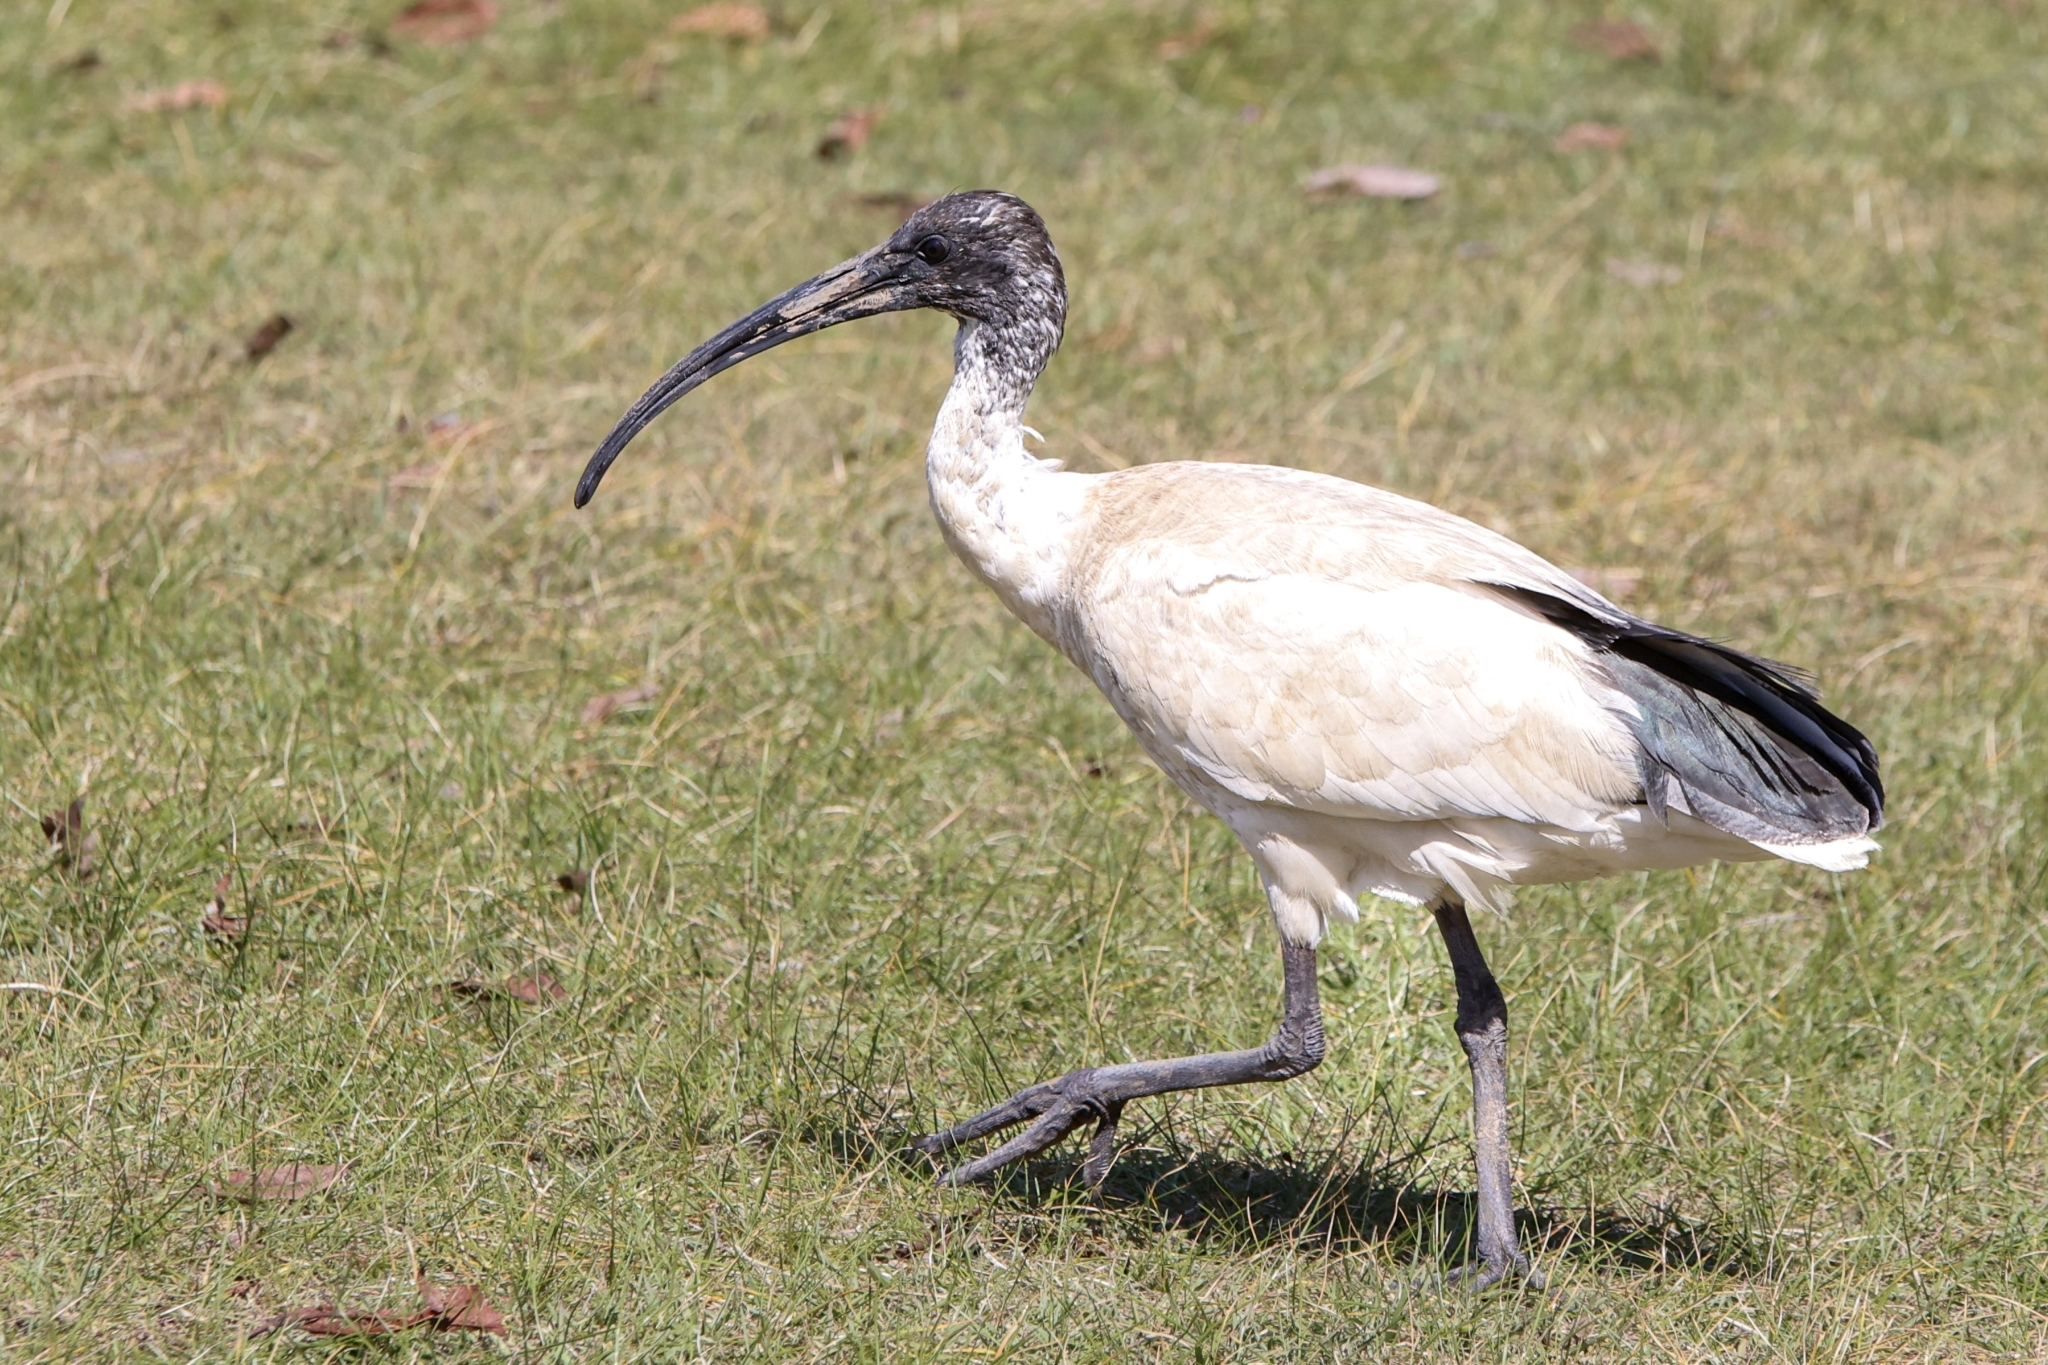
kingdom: Animalia
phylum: Chordata
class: Aves
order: Pelecaniformes
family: Threskiornithidae
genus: Threskiornis
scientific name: Threskiornis molucca
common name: Australian white ibis
